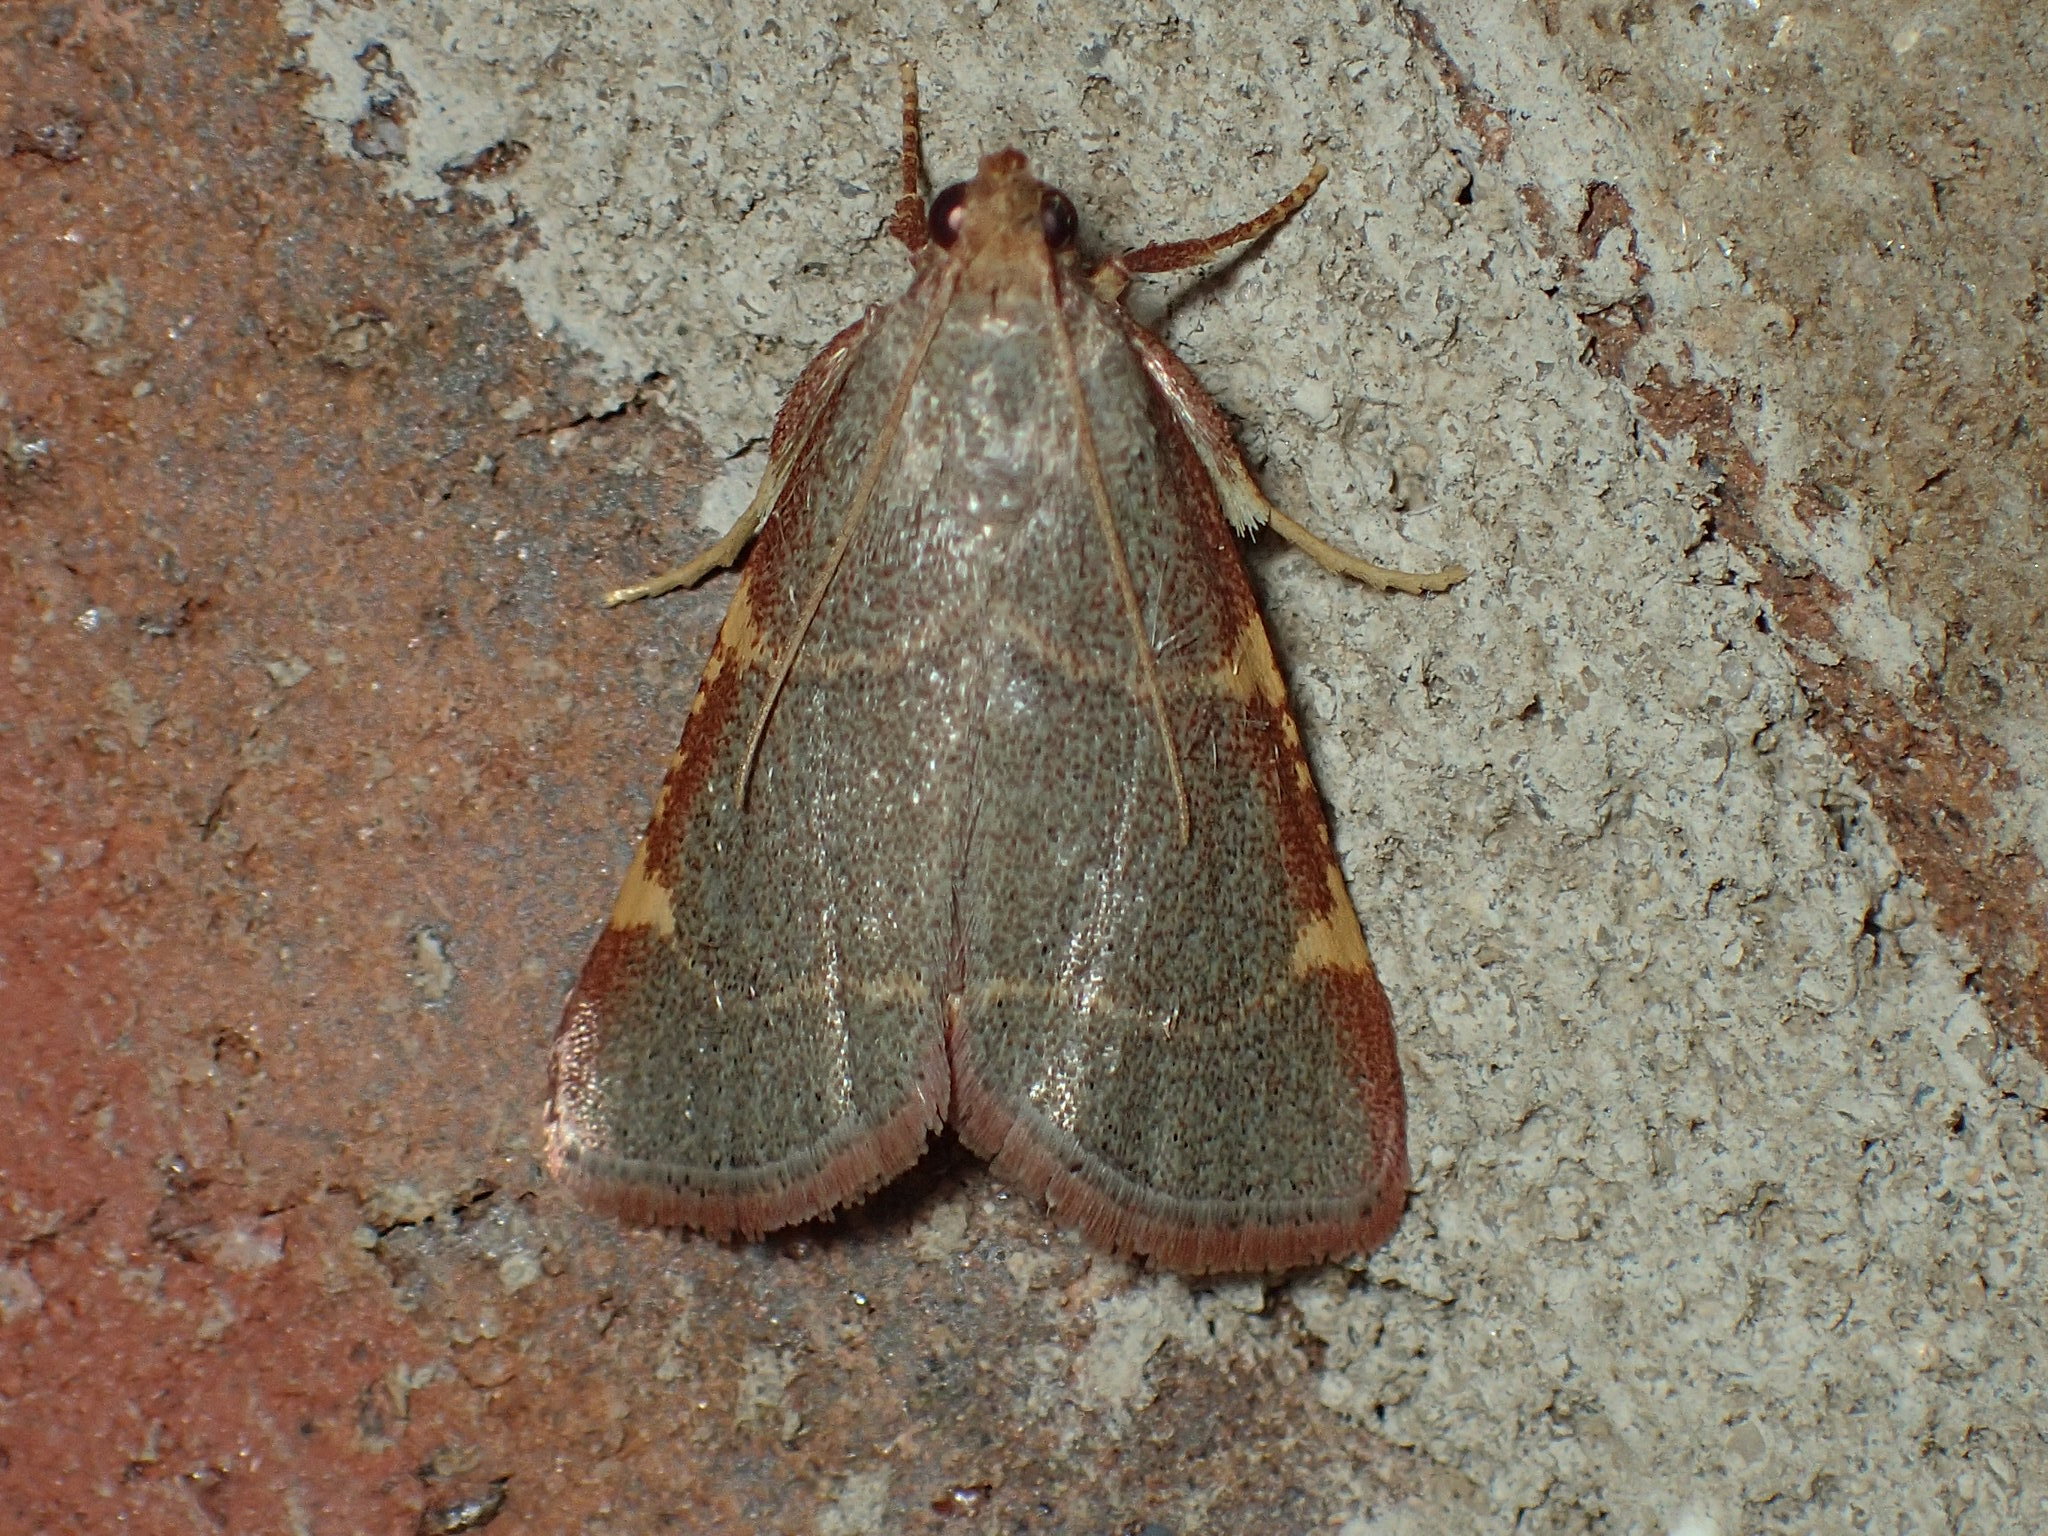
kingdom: Animalia
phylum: Arthropoda
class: Insecta
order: Lepidoptera
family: Pyralidae
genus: Hypsopygia
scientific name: Hypsopygia binodulalis
